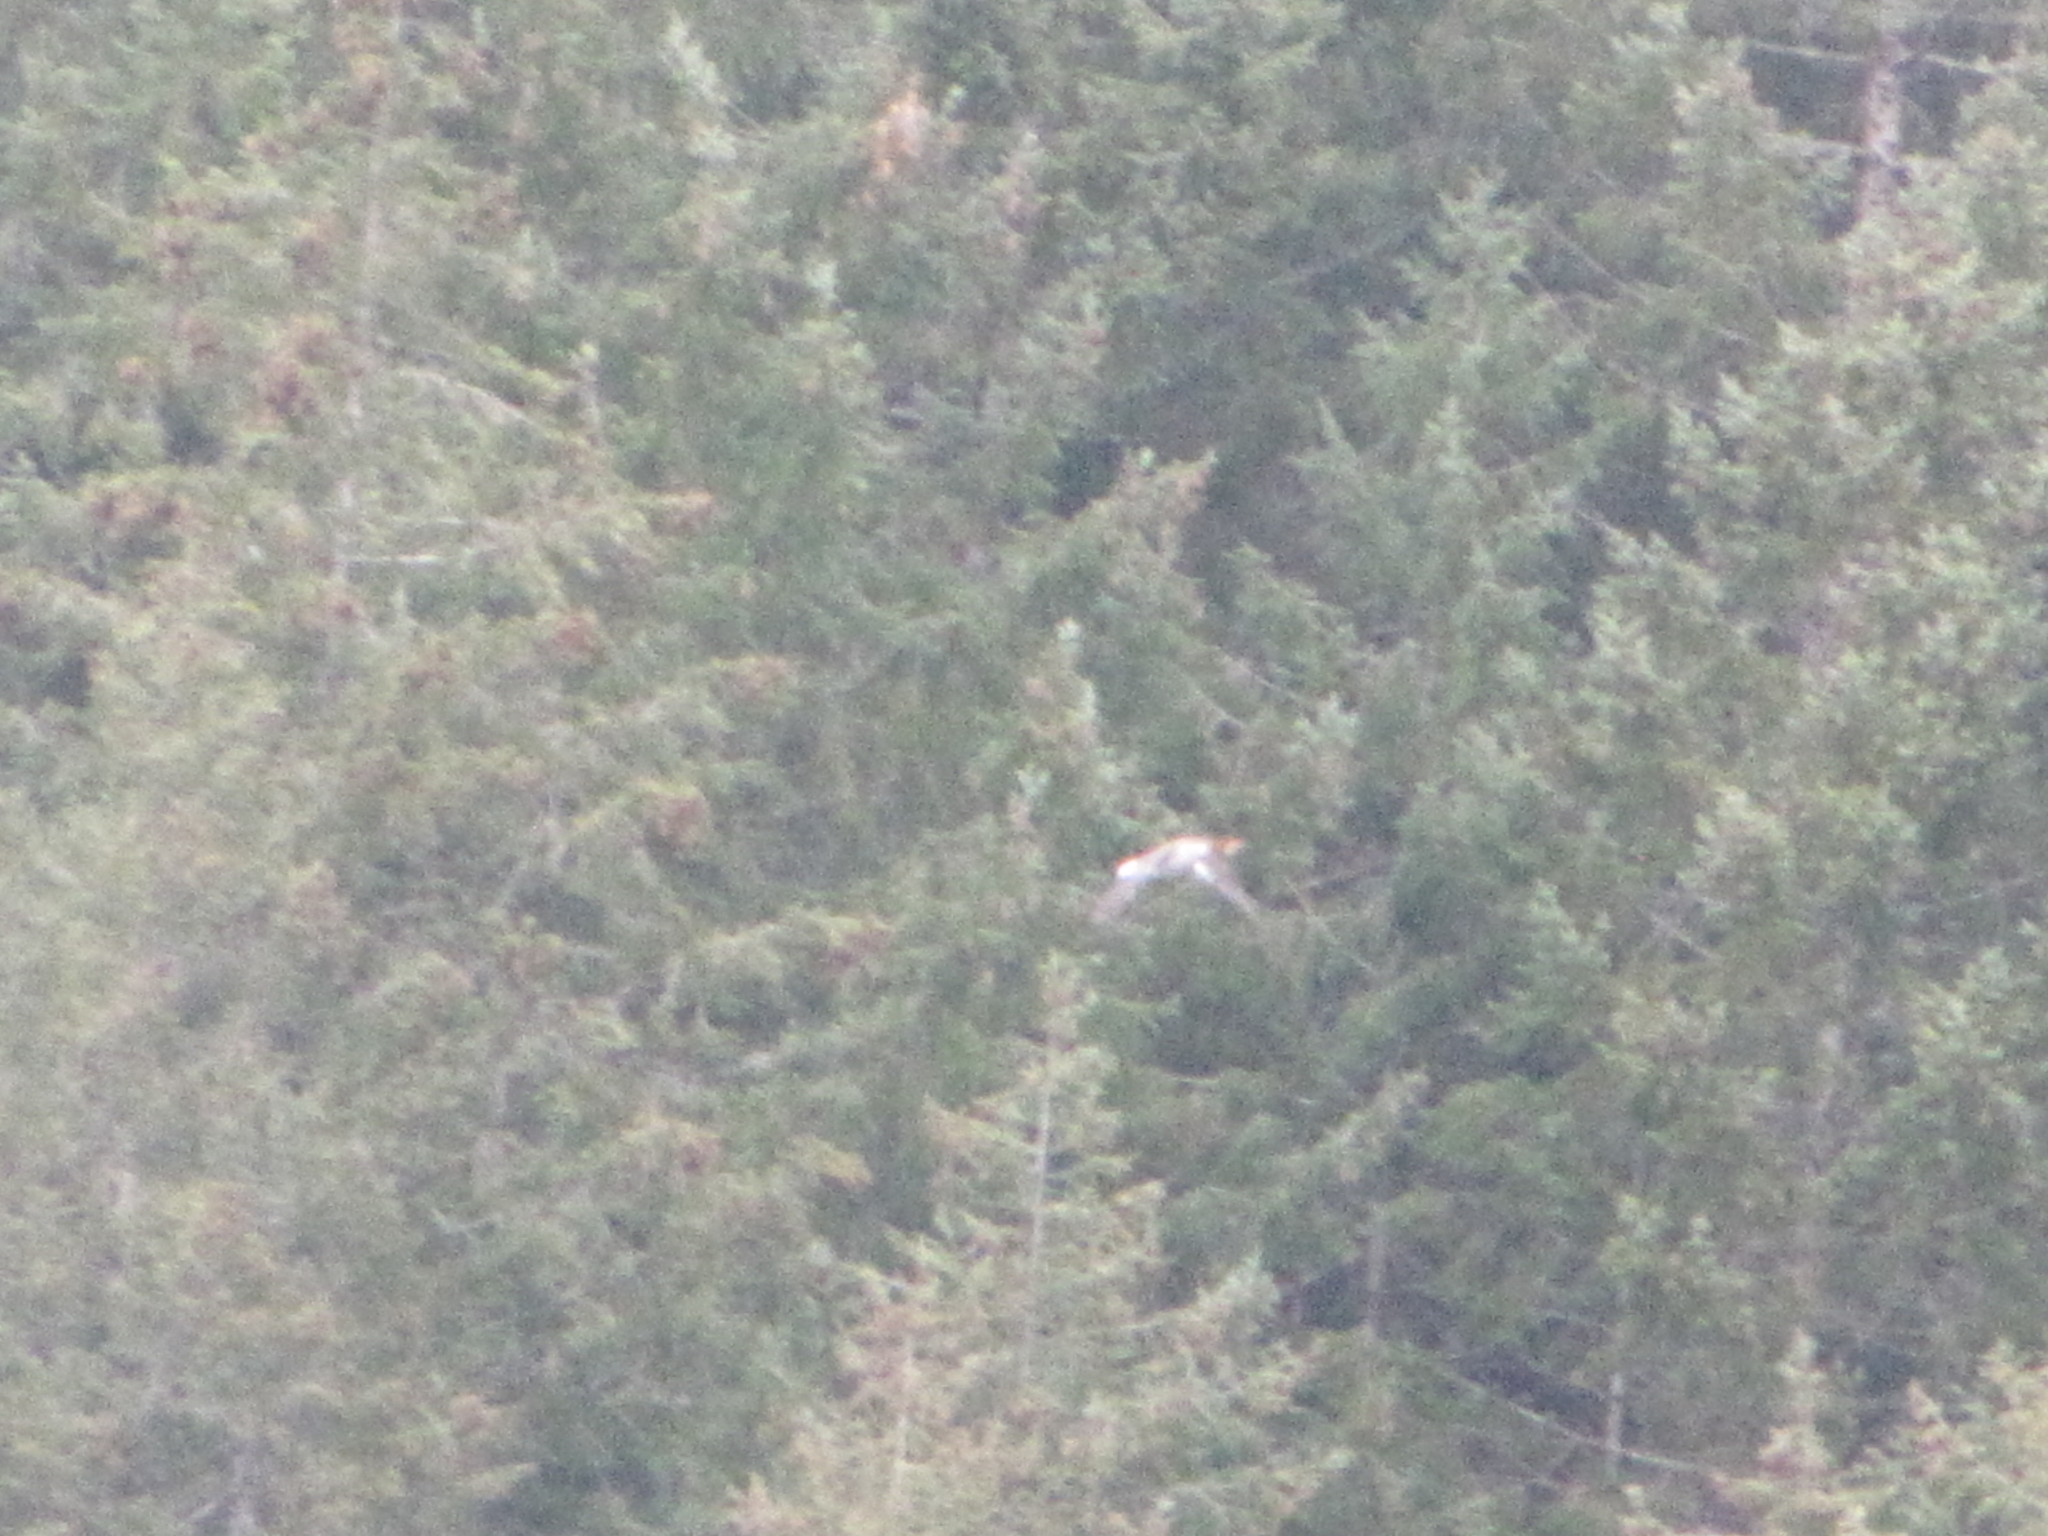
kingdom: Animalia
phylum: Chordata
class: Aves
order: Anseriformes
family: Anatidae
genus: Mergus
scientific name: Mergus merganser
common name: Common merganser
